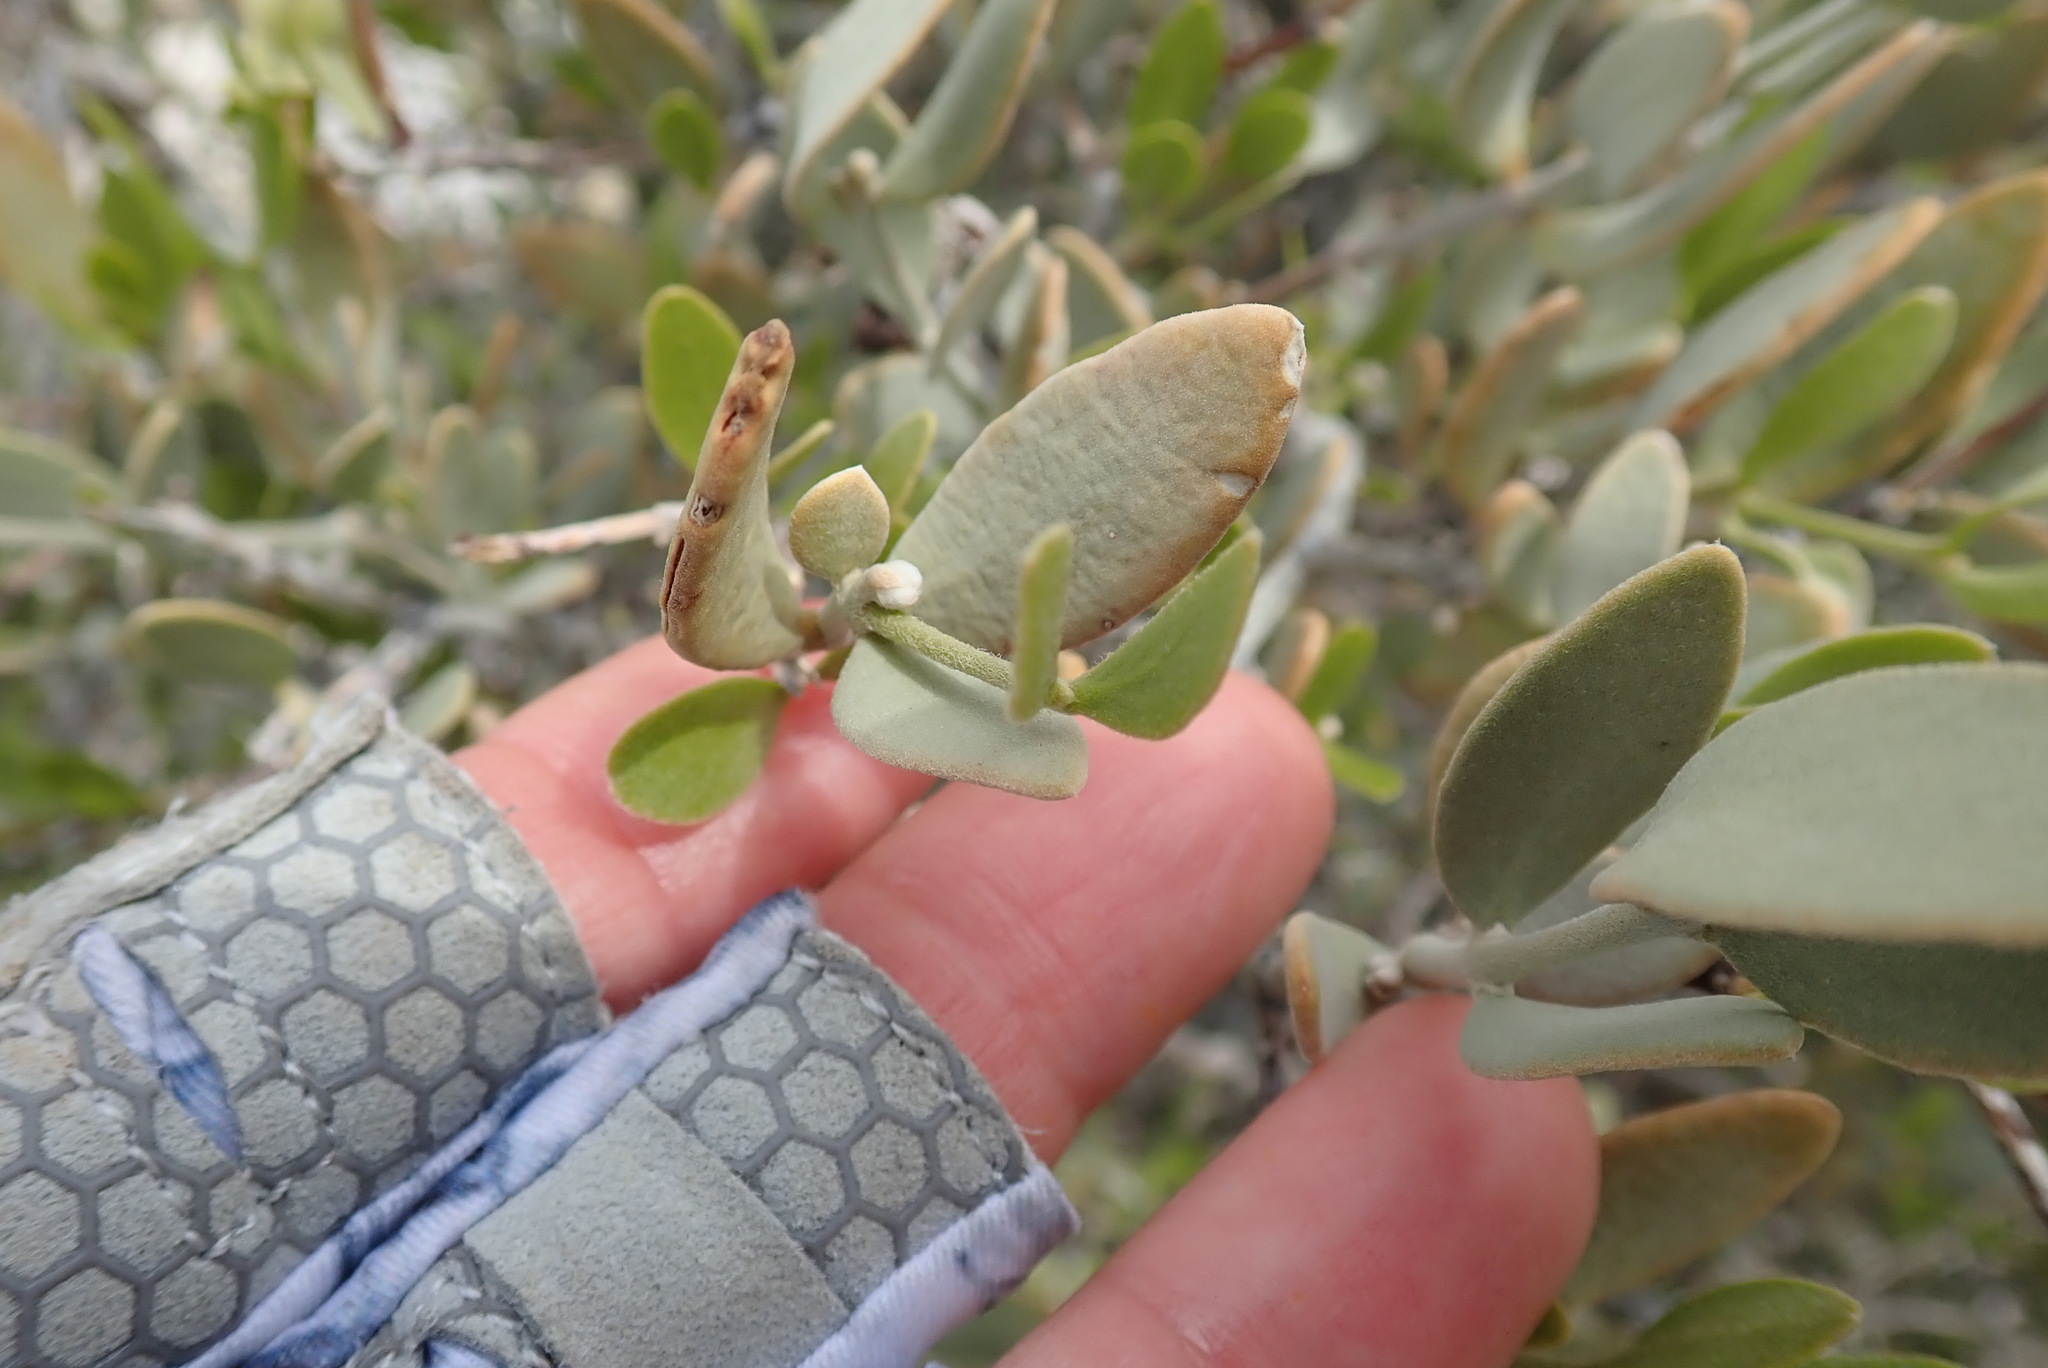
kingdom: Plantae
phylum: Tracheophyta
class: Magnoliopsida
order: Caryophyllales
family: Simmondsiaceae
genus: Simmondsia
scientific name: Simmondsia chinensis
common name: Jojoba
